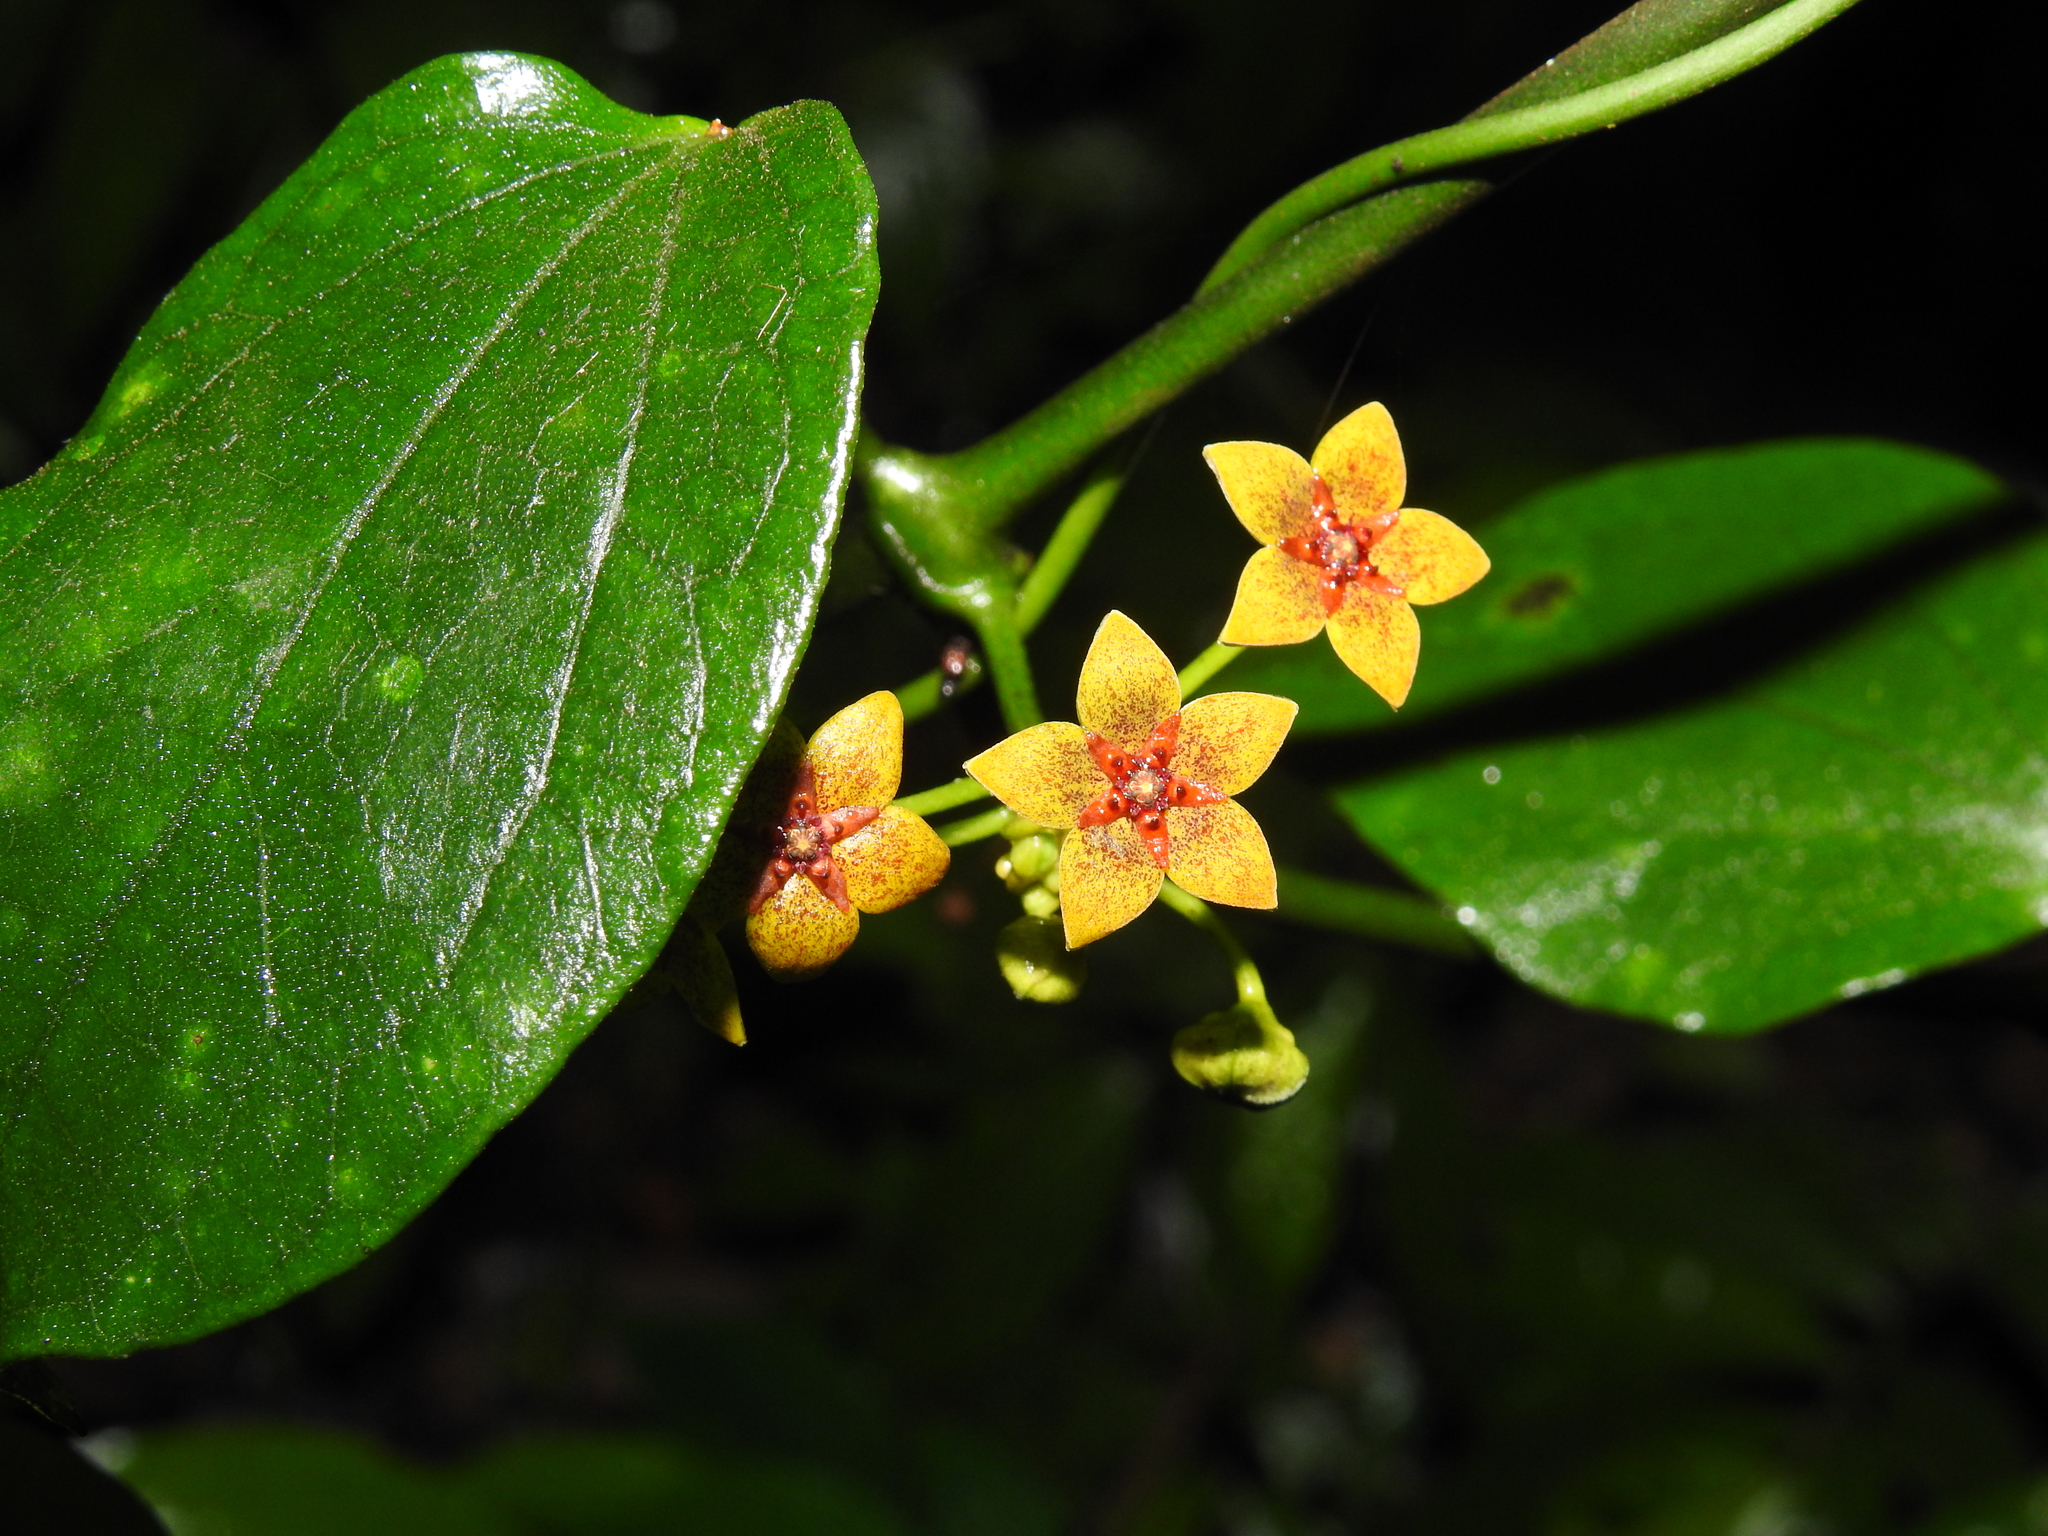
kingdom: Plantae
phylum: Tracheophyta
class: Magnoliopsida
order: Gentianales
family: Apocynaceae
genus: Heterostemma
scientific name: Heterostemma brownii
